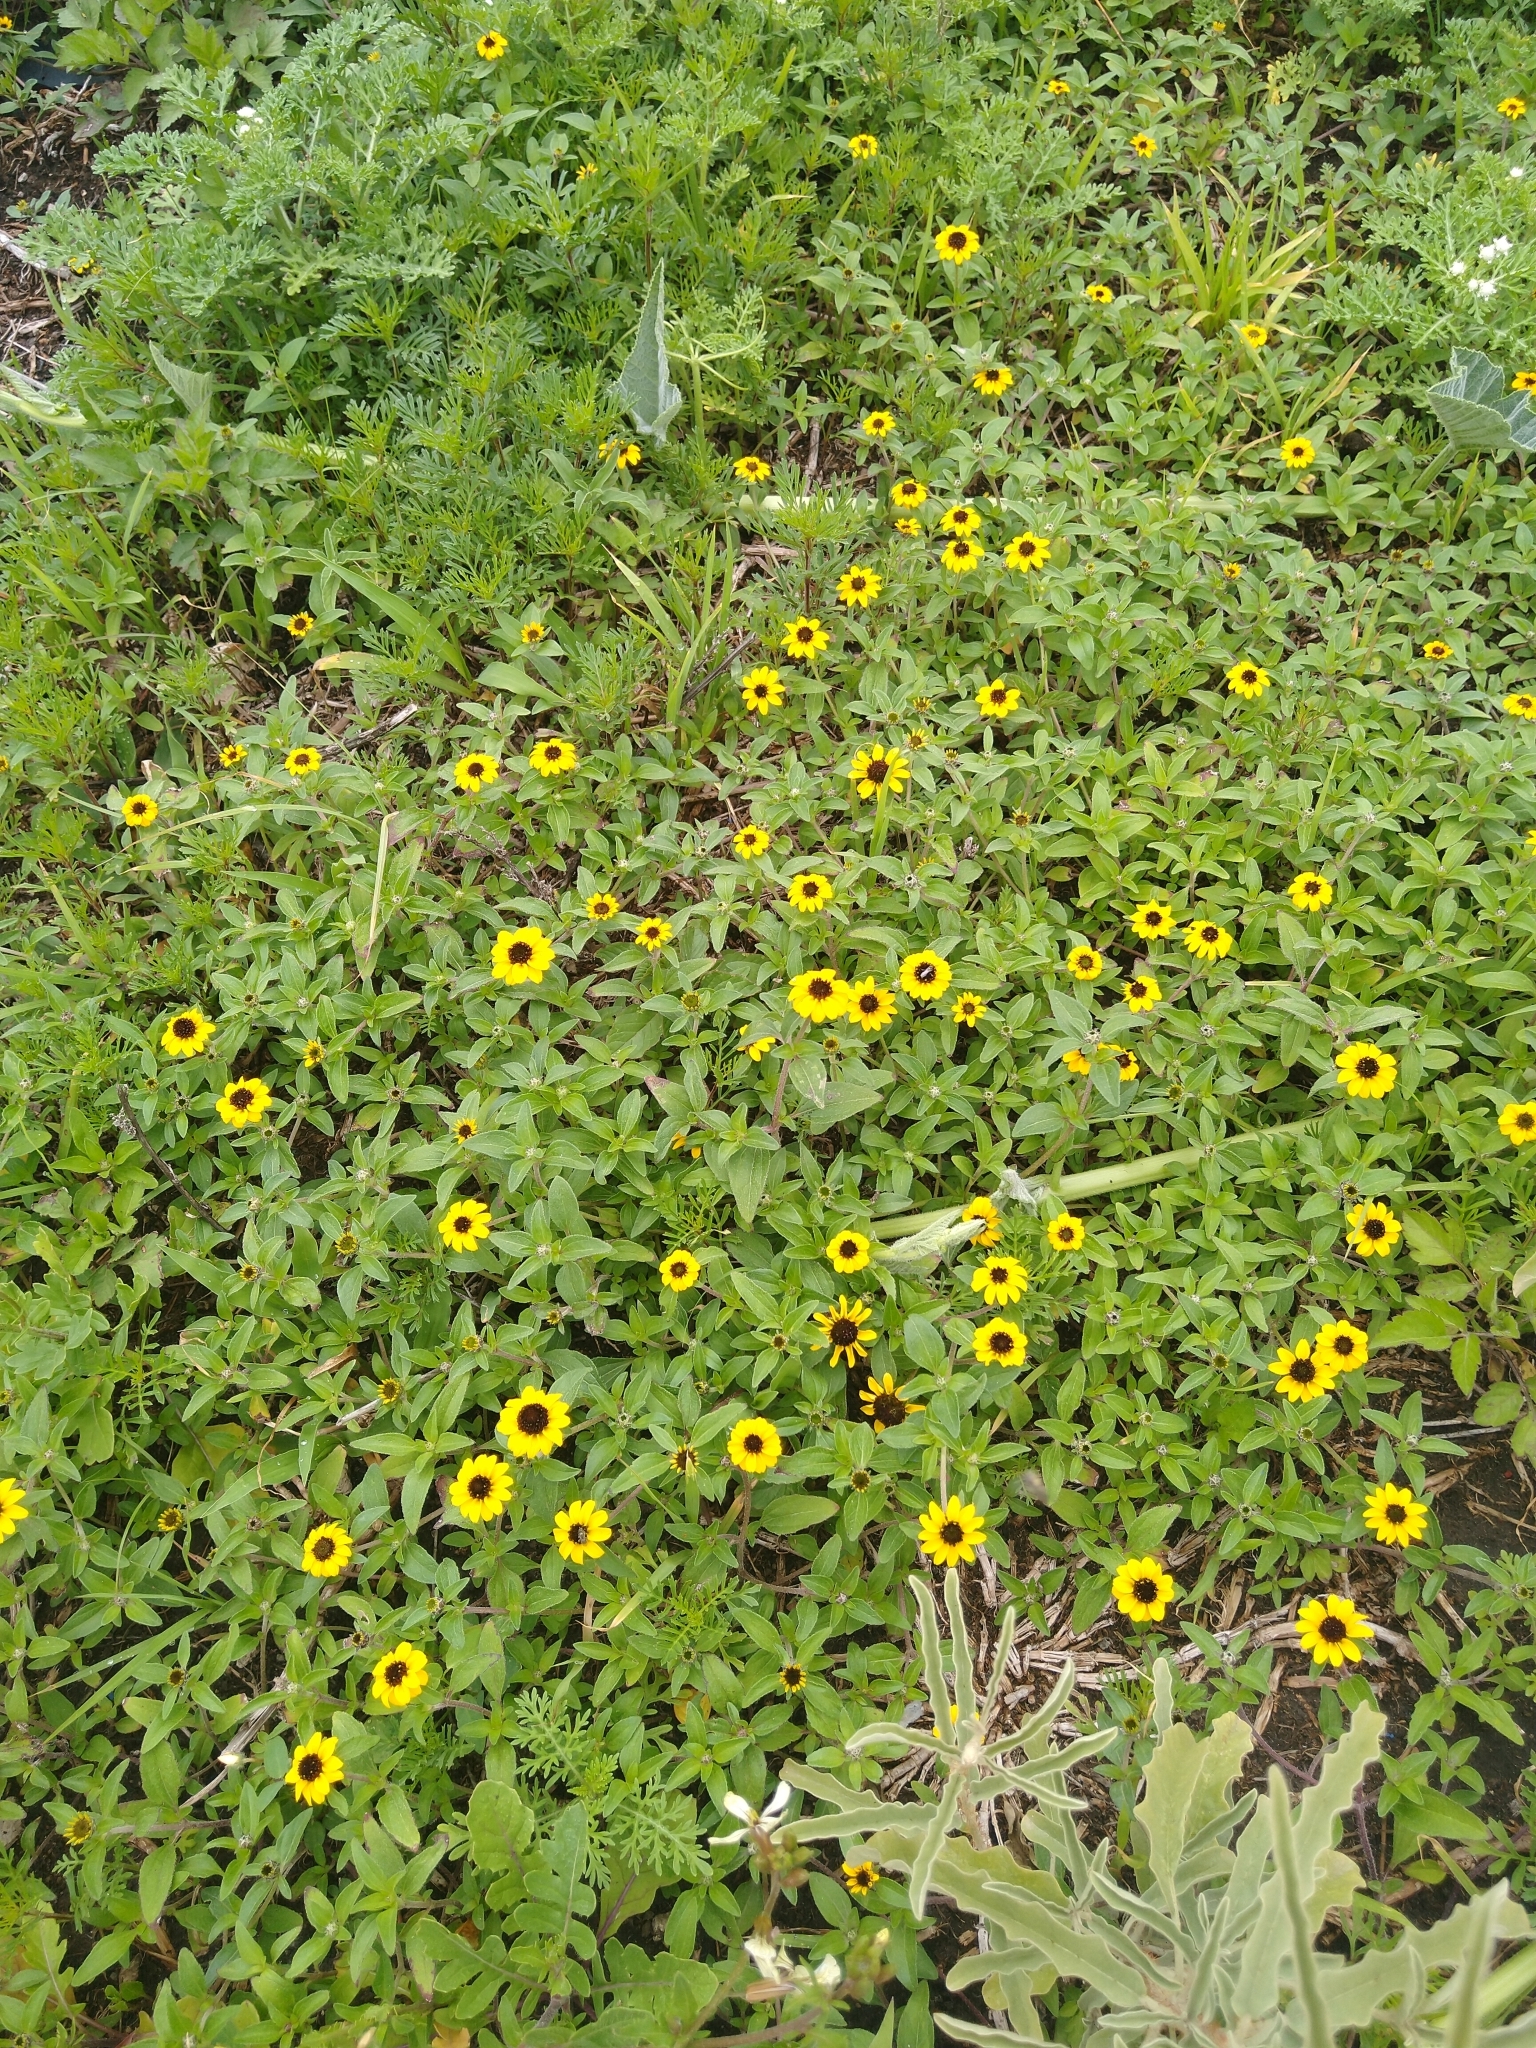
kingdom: Plantae
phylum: Tracheophyta
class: Magnoliopsida
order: Asterales
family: Asteraceae
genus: Sanvitalia
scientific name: Sanvitalia procumbens
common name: Mexican creeping zinnia
